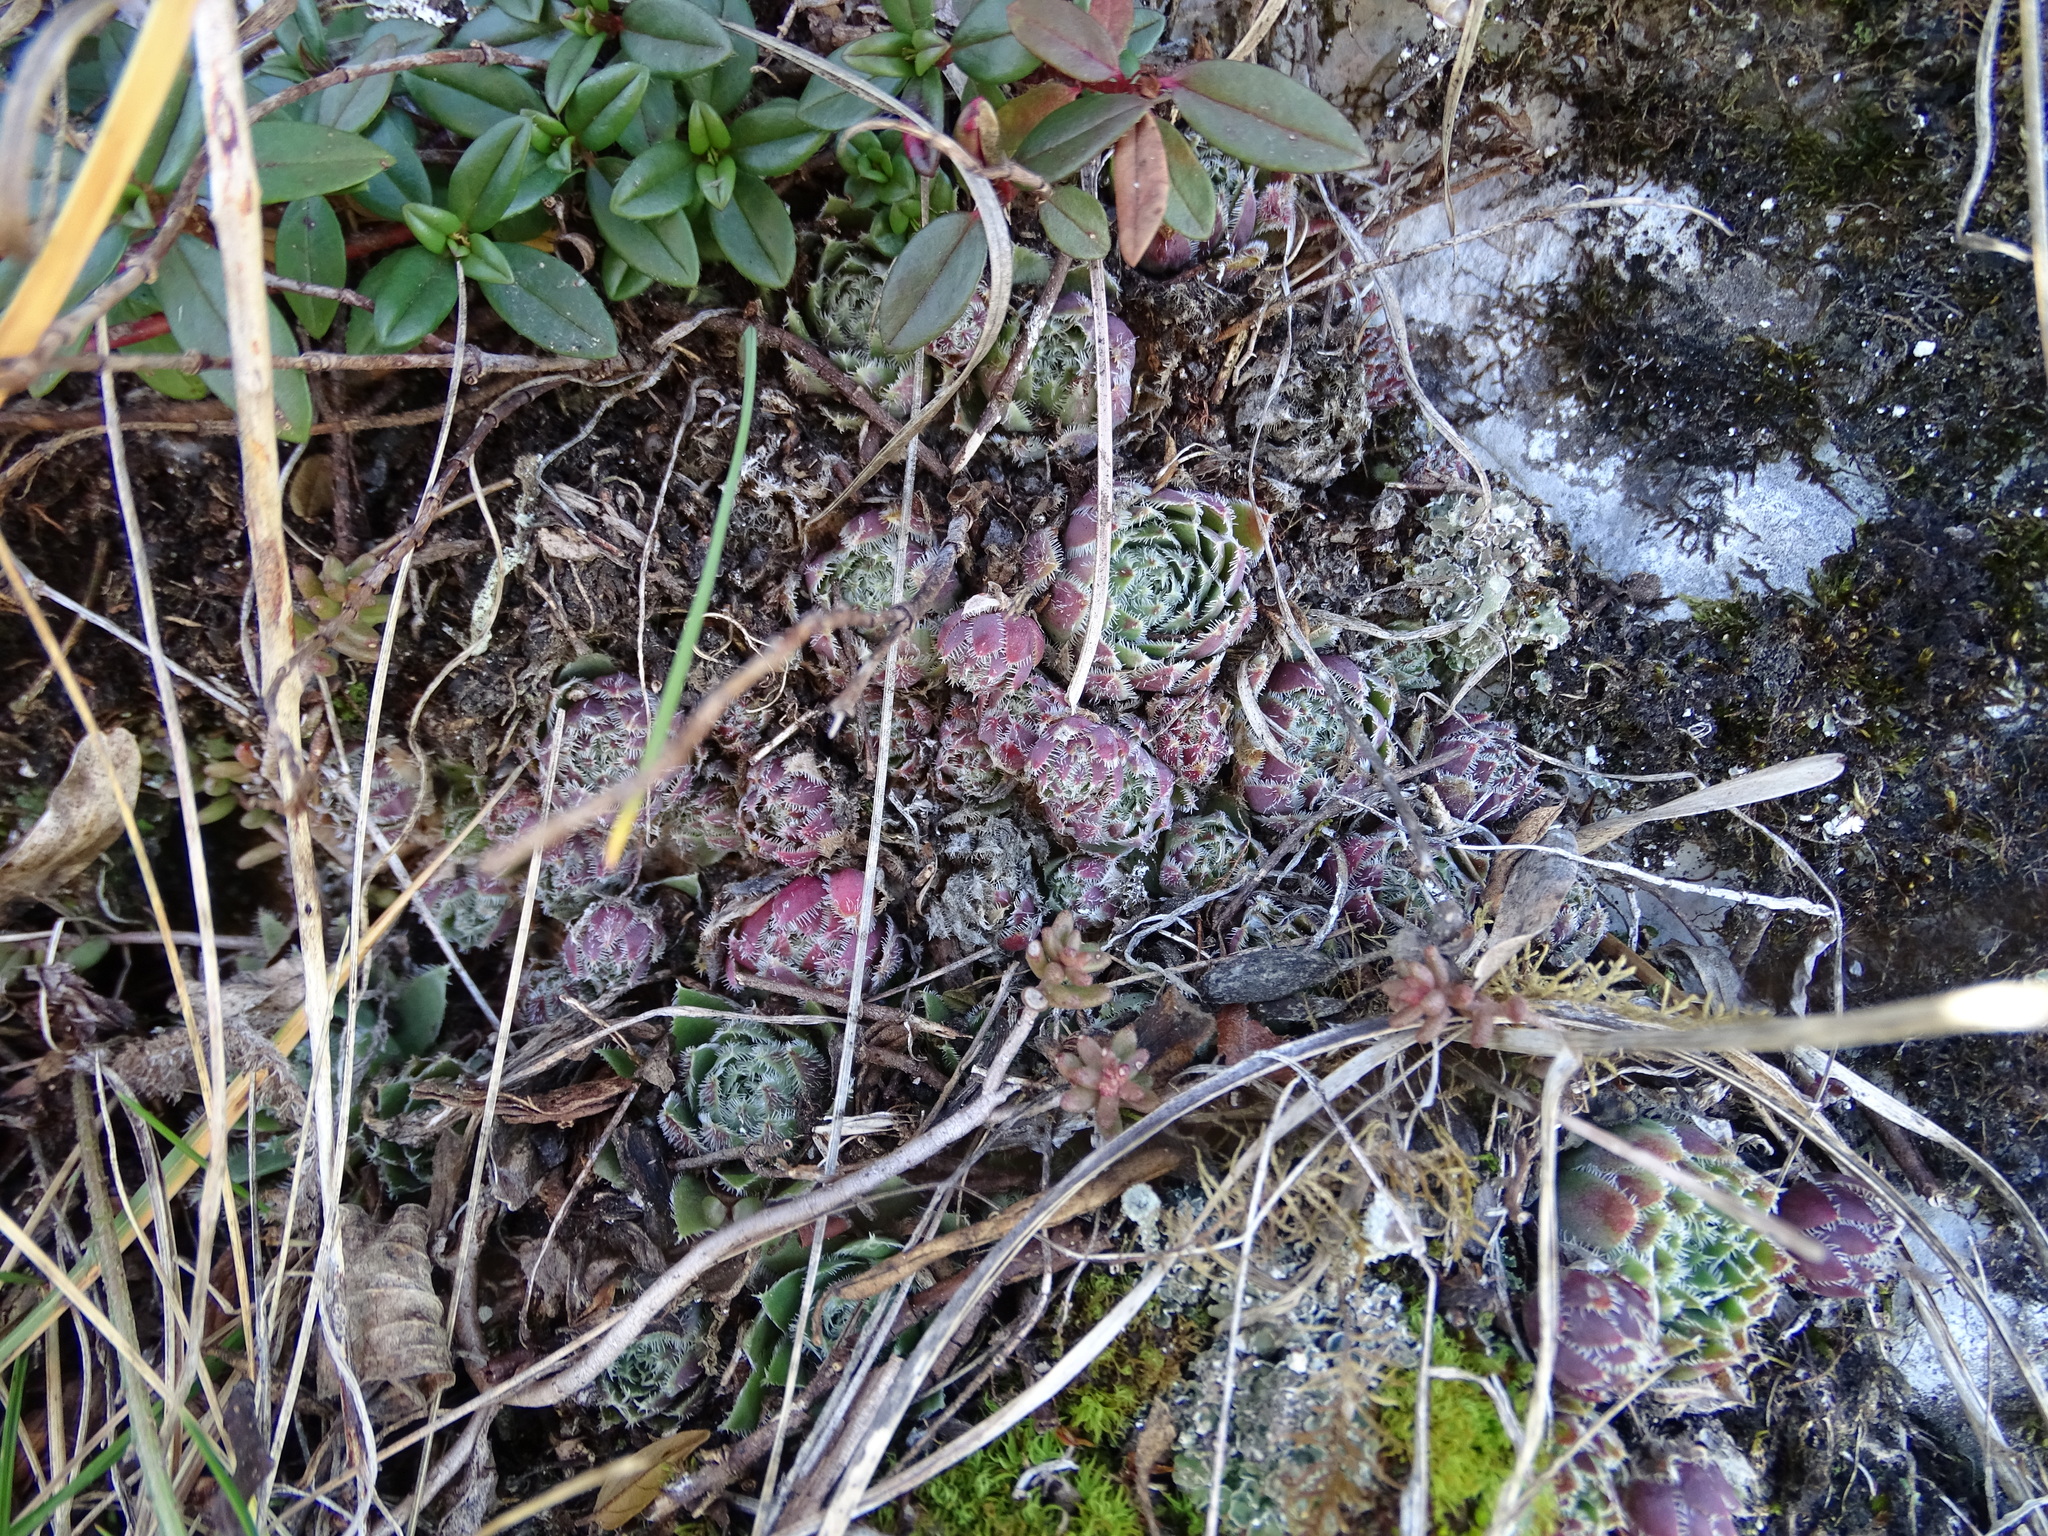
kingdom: Plantae
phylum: Tracheophyta
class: Magnoliopsida
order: Saxifragales
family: Crassulaceae
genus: Sempervivum
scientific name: Sempervivum globiferum
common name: Rolling hen-and-chicks
